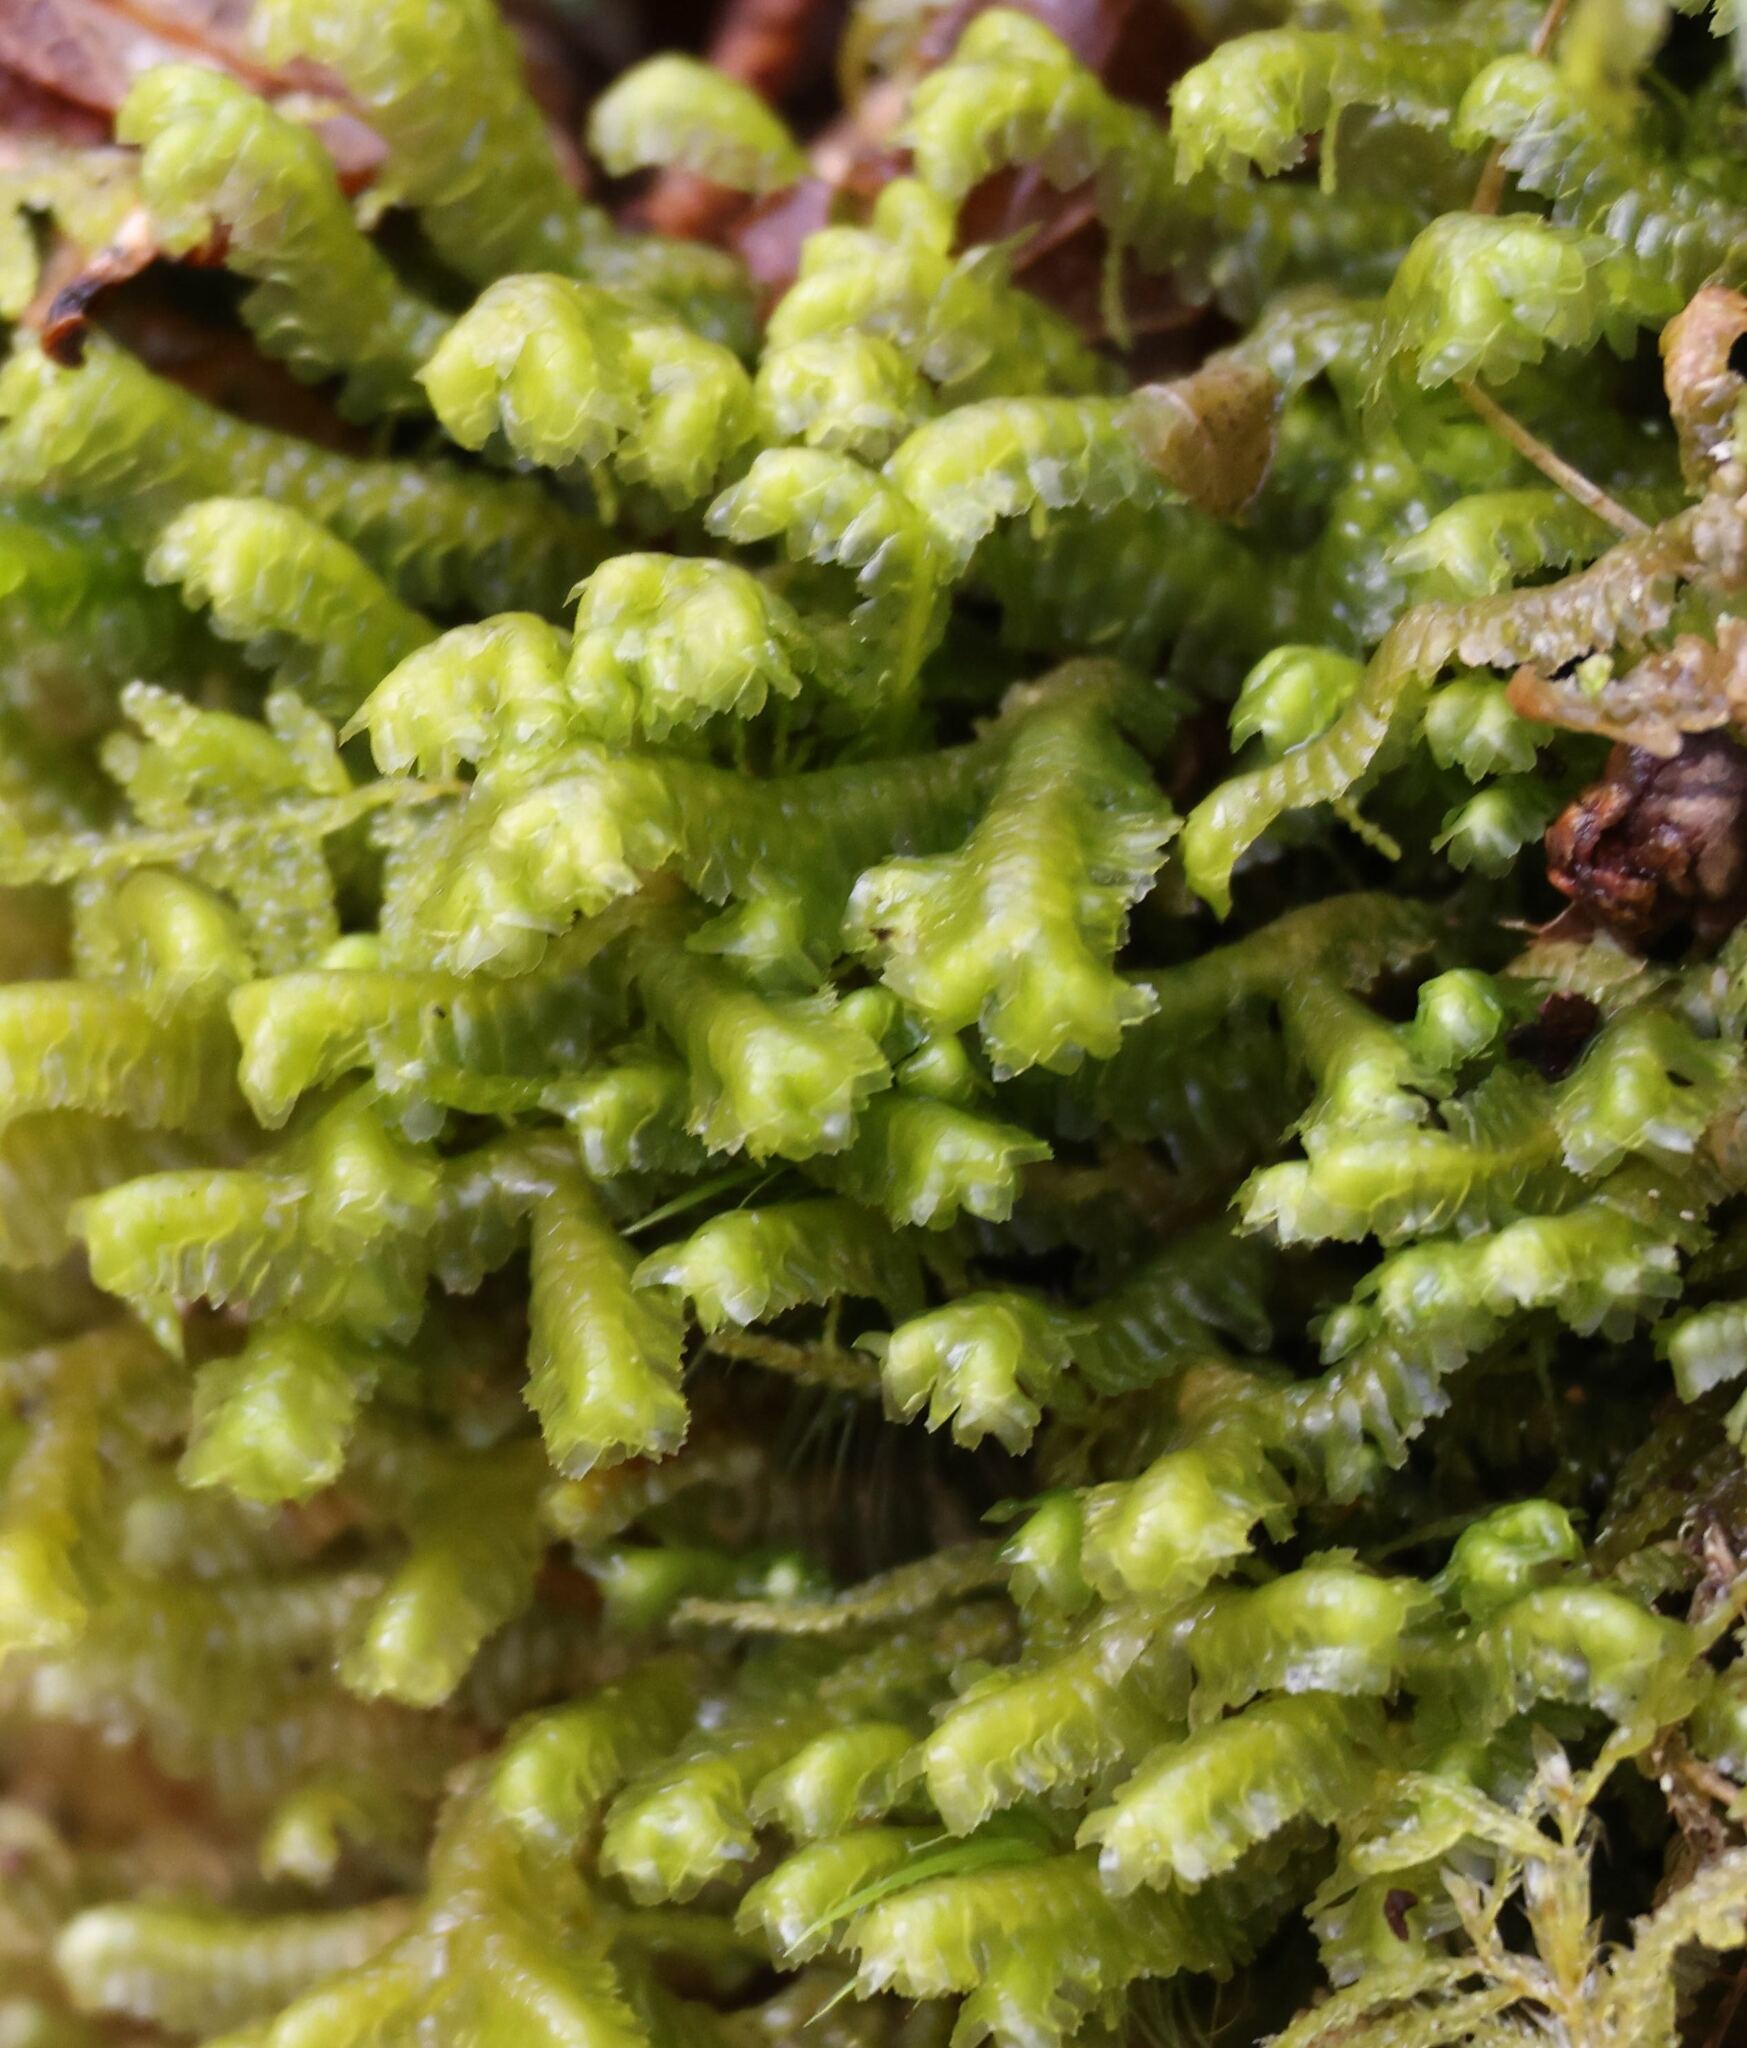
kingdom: Plantae
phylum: Marchantiophyta
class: Jungermanniopsida
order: Jungermanniales
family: Lepidoziaceae
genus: Bazzania
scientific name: Bazzania trilobata
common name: Three-lobed whipwort
